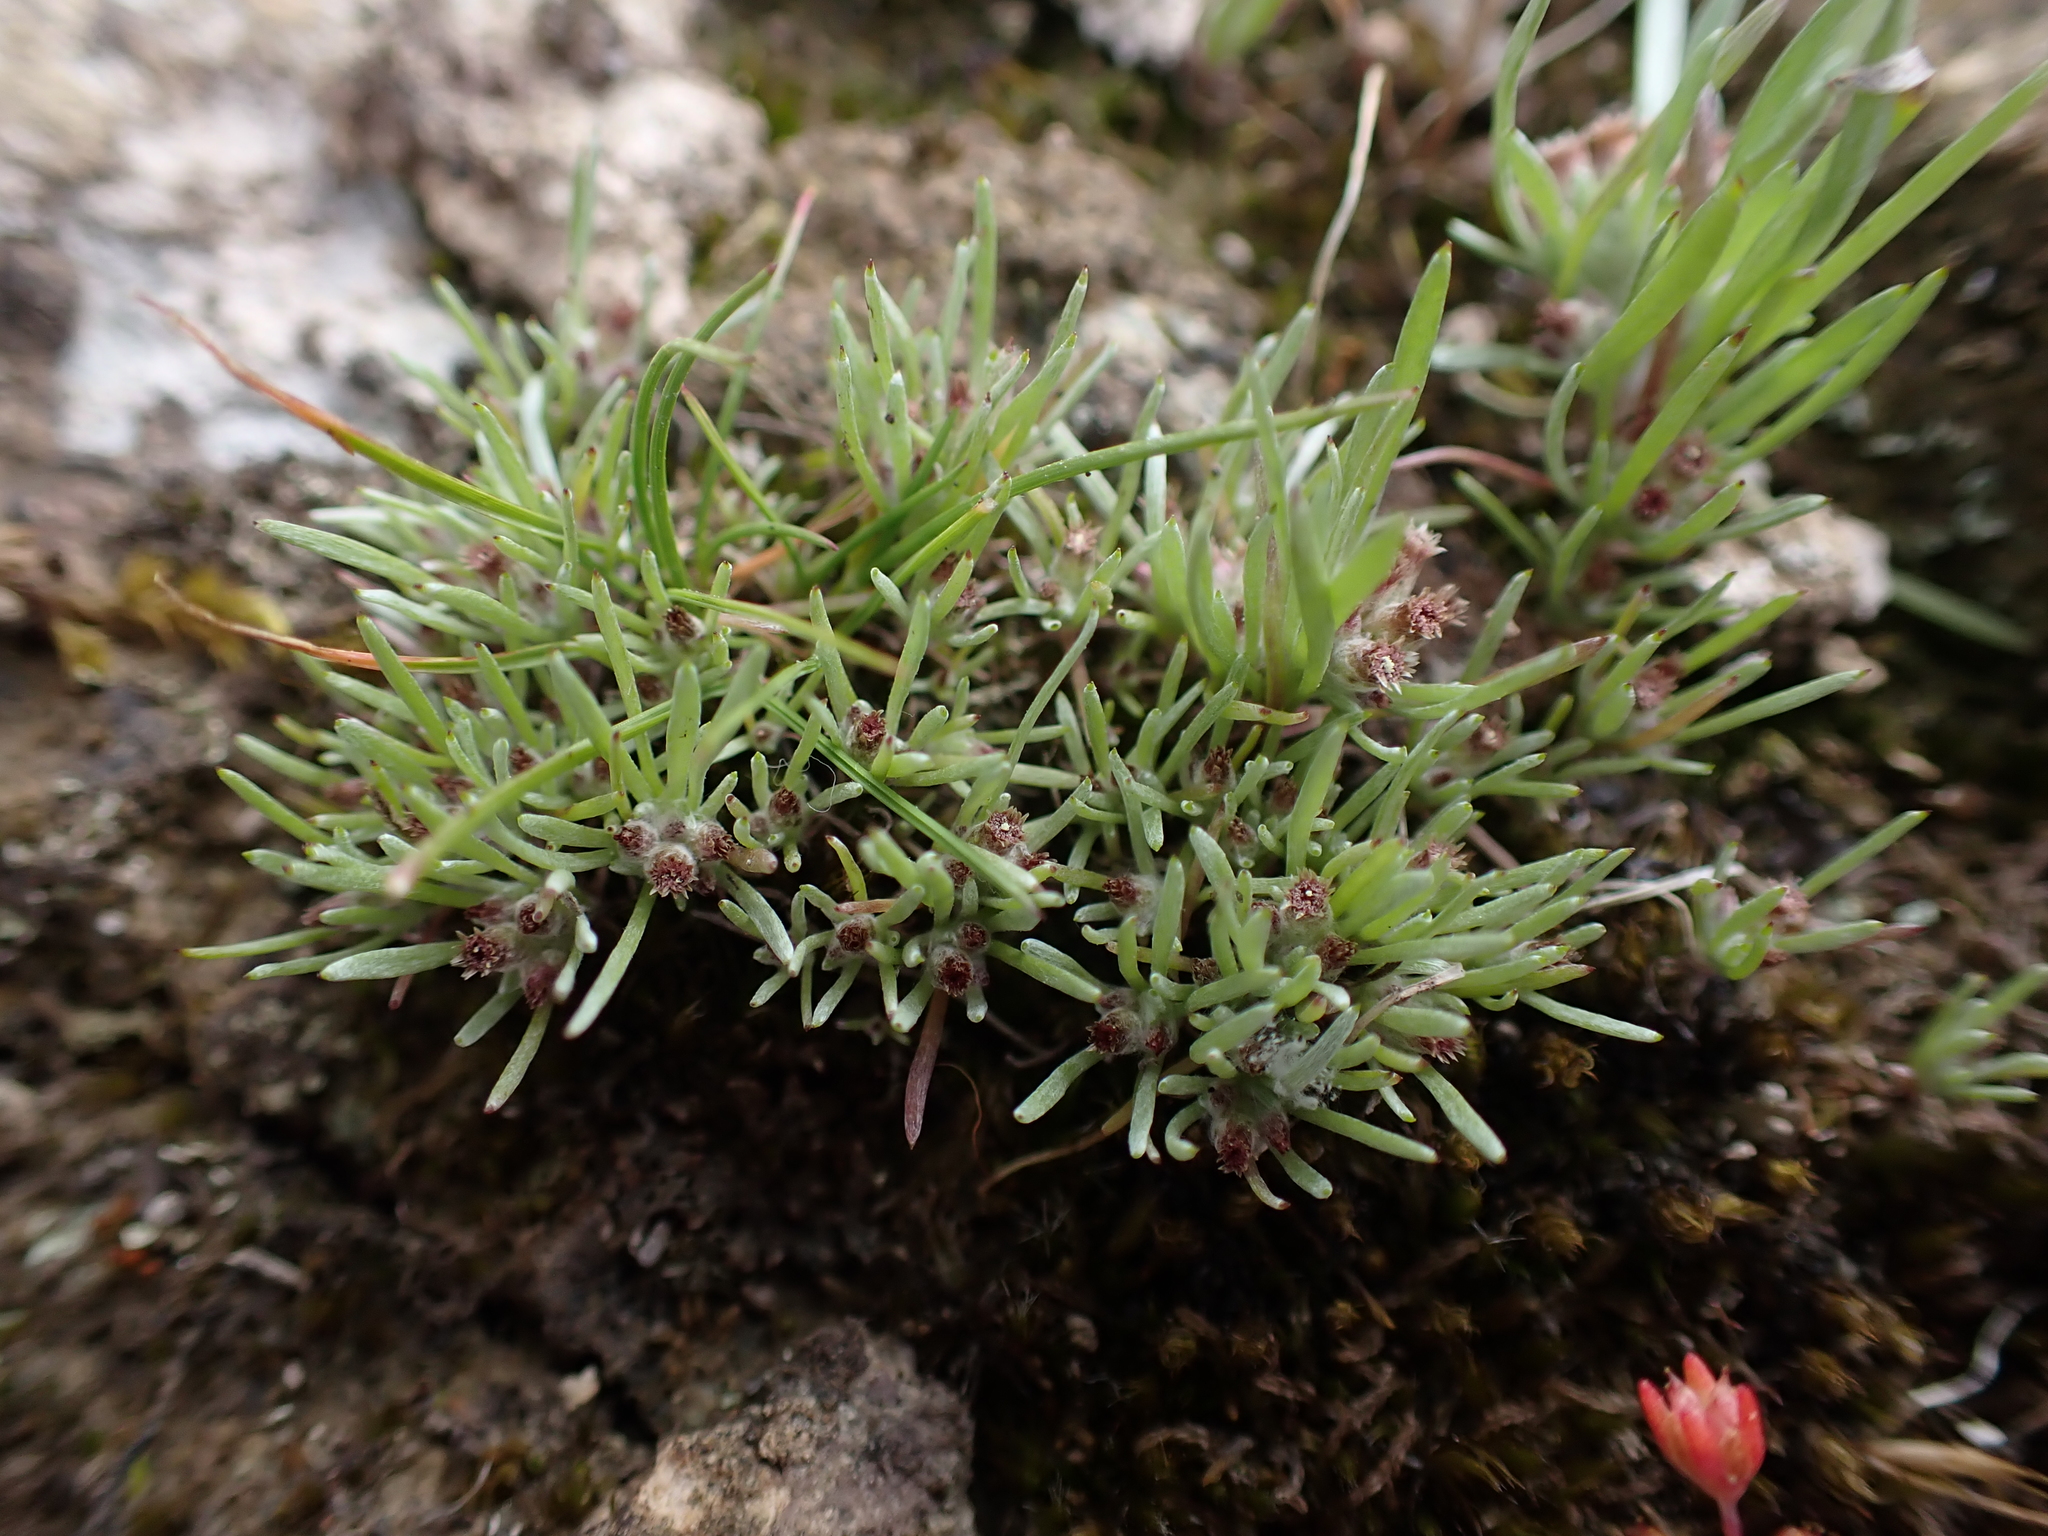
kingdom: Plantae
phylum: Tracheophyta
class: Magnoliopsida
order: Asterales
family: Asteraceae
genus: Gnaphalium
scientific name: Gnaphalium indutum
